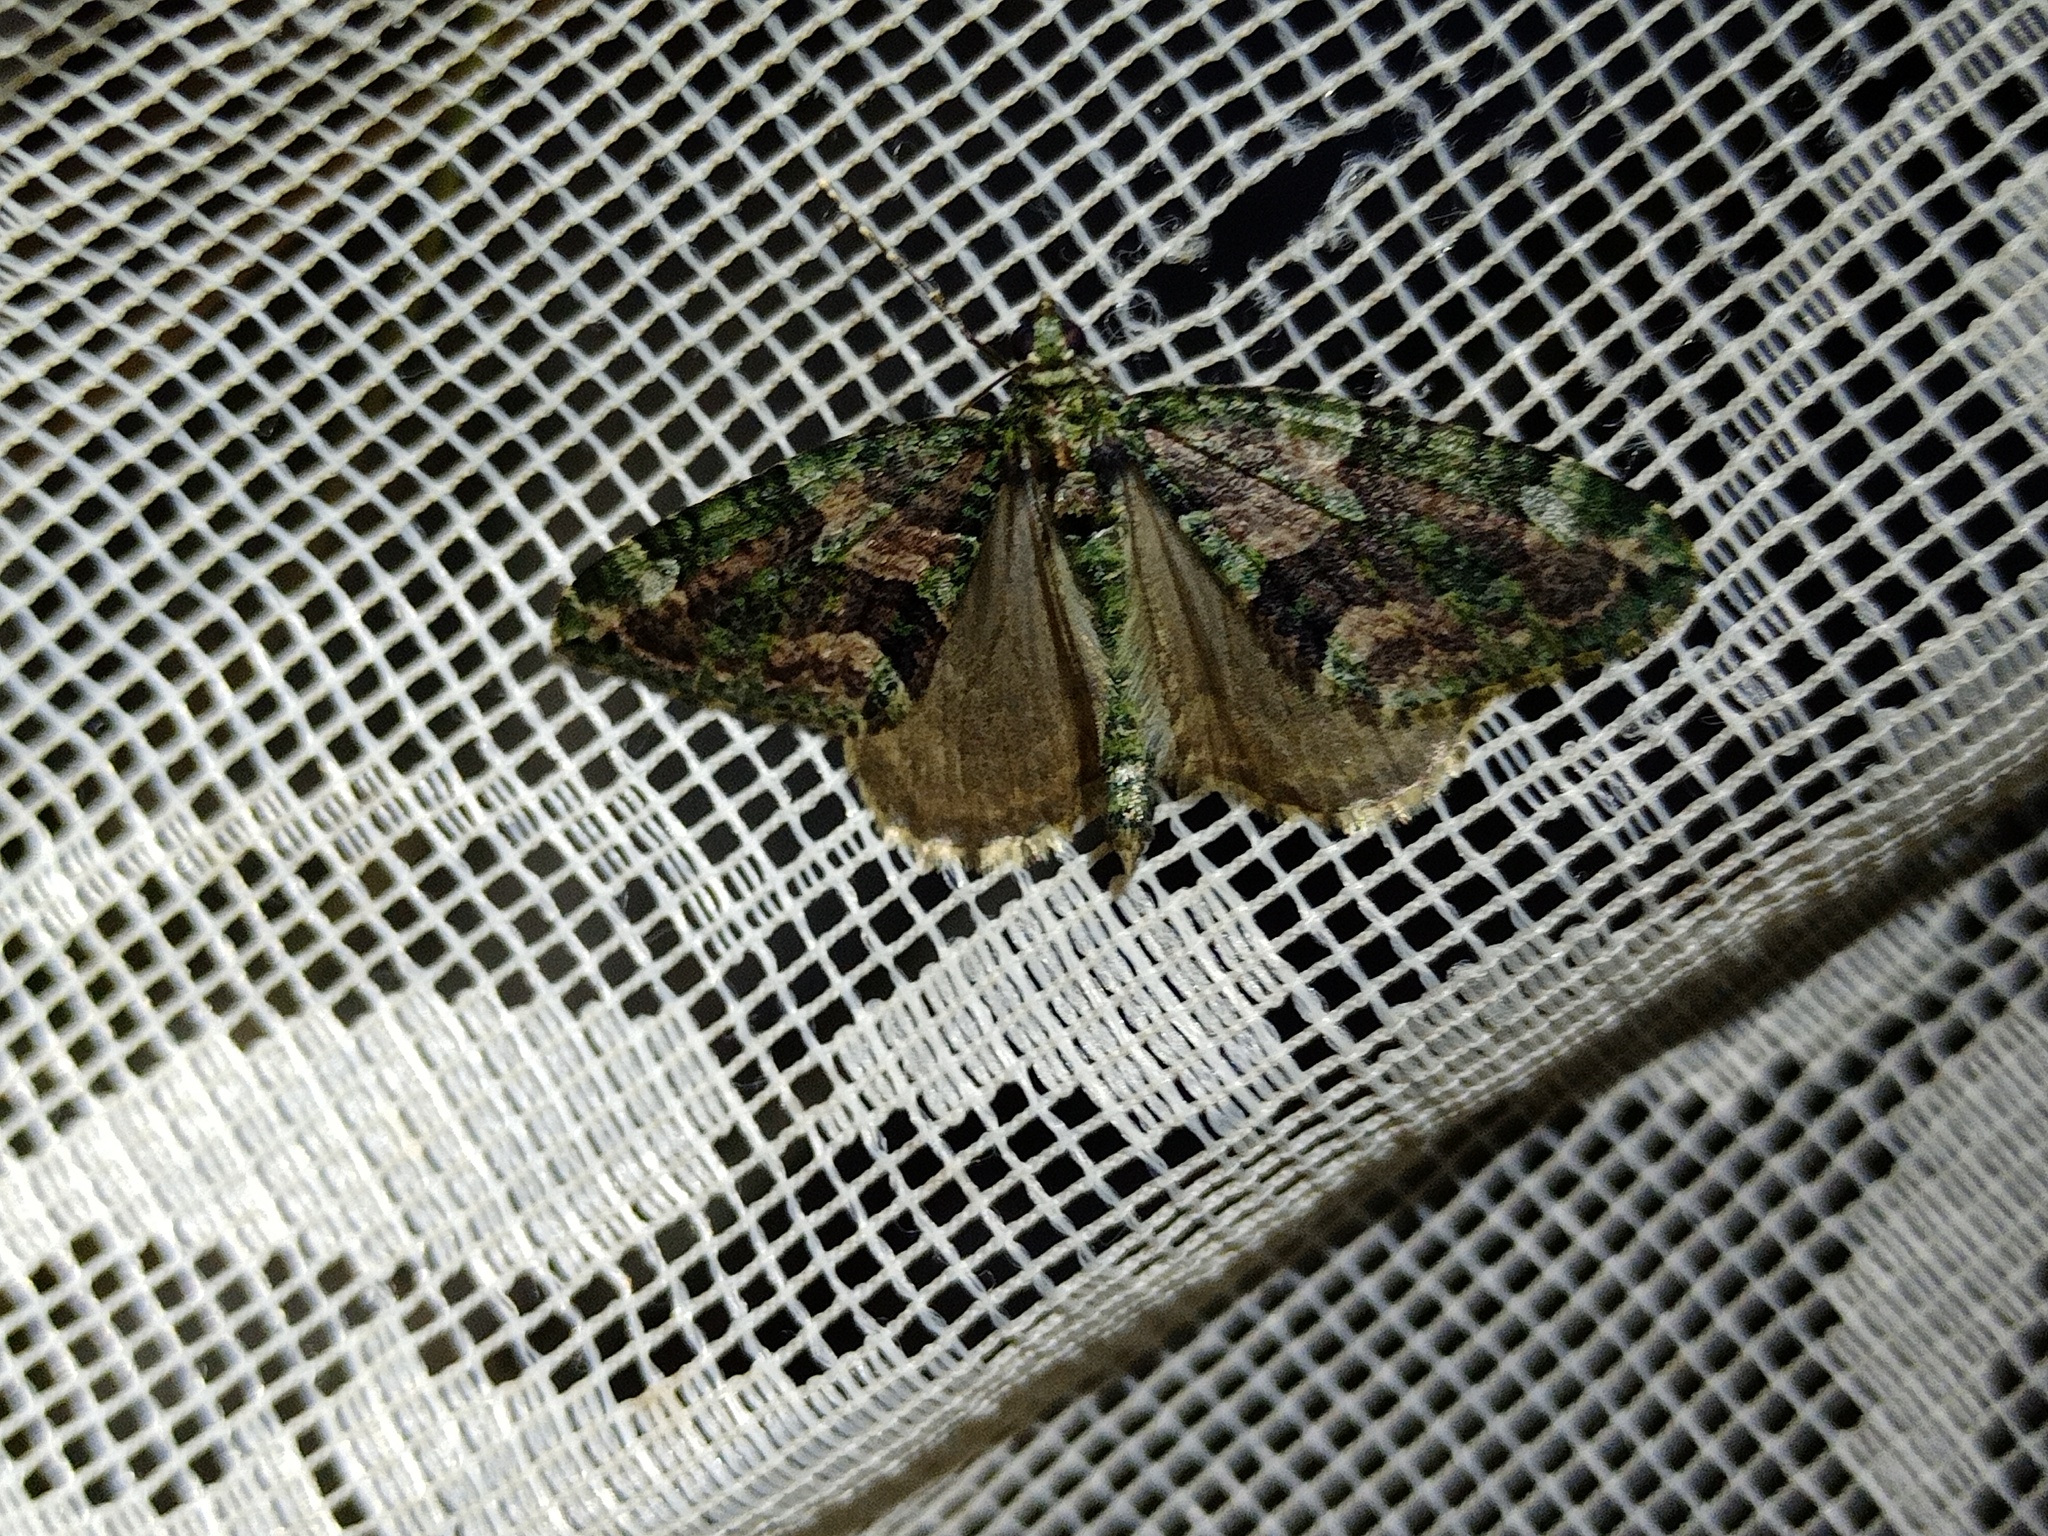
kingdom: Animalia
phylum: Arthropoda
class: Insecta
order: Lepidoptera
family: Geometridae
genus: Chloroclysta
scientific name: Chloroclysta siterata
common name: Red-green carpet
